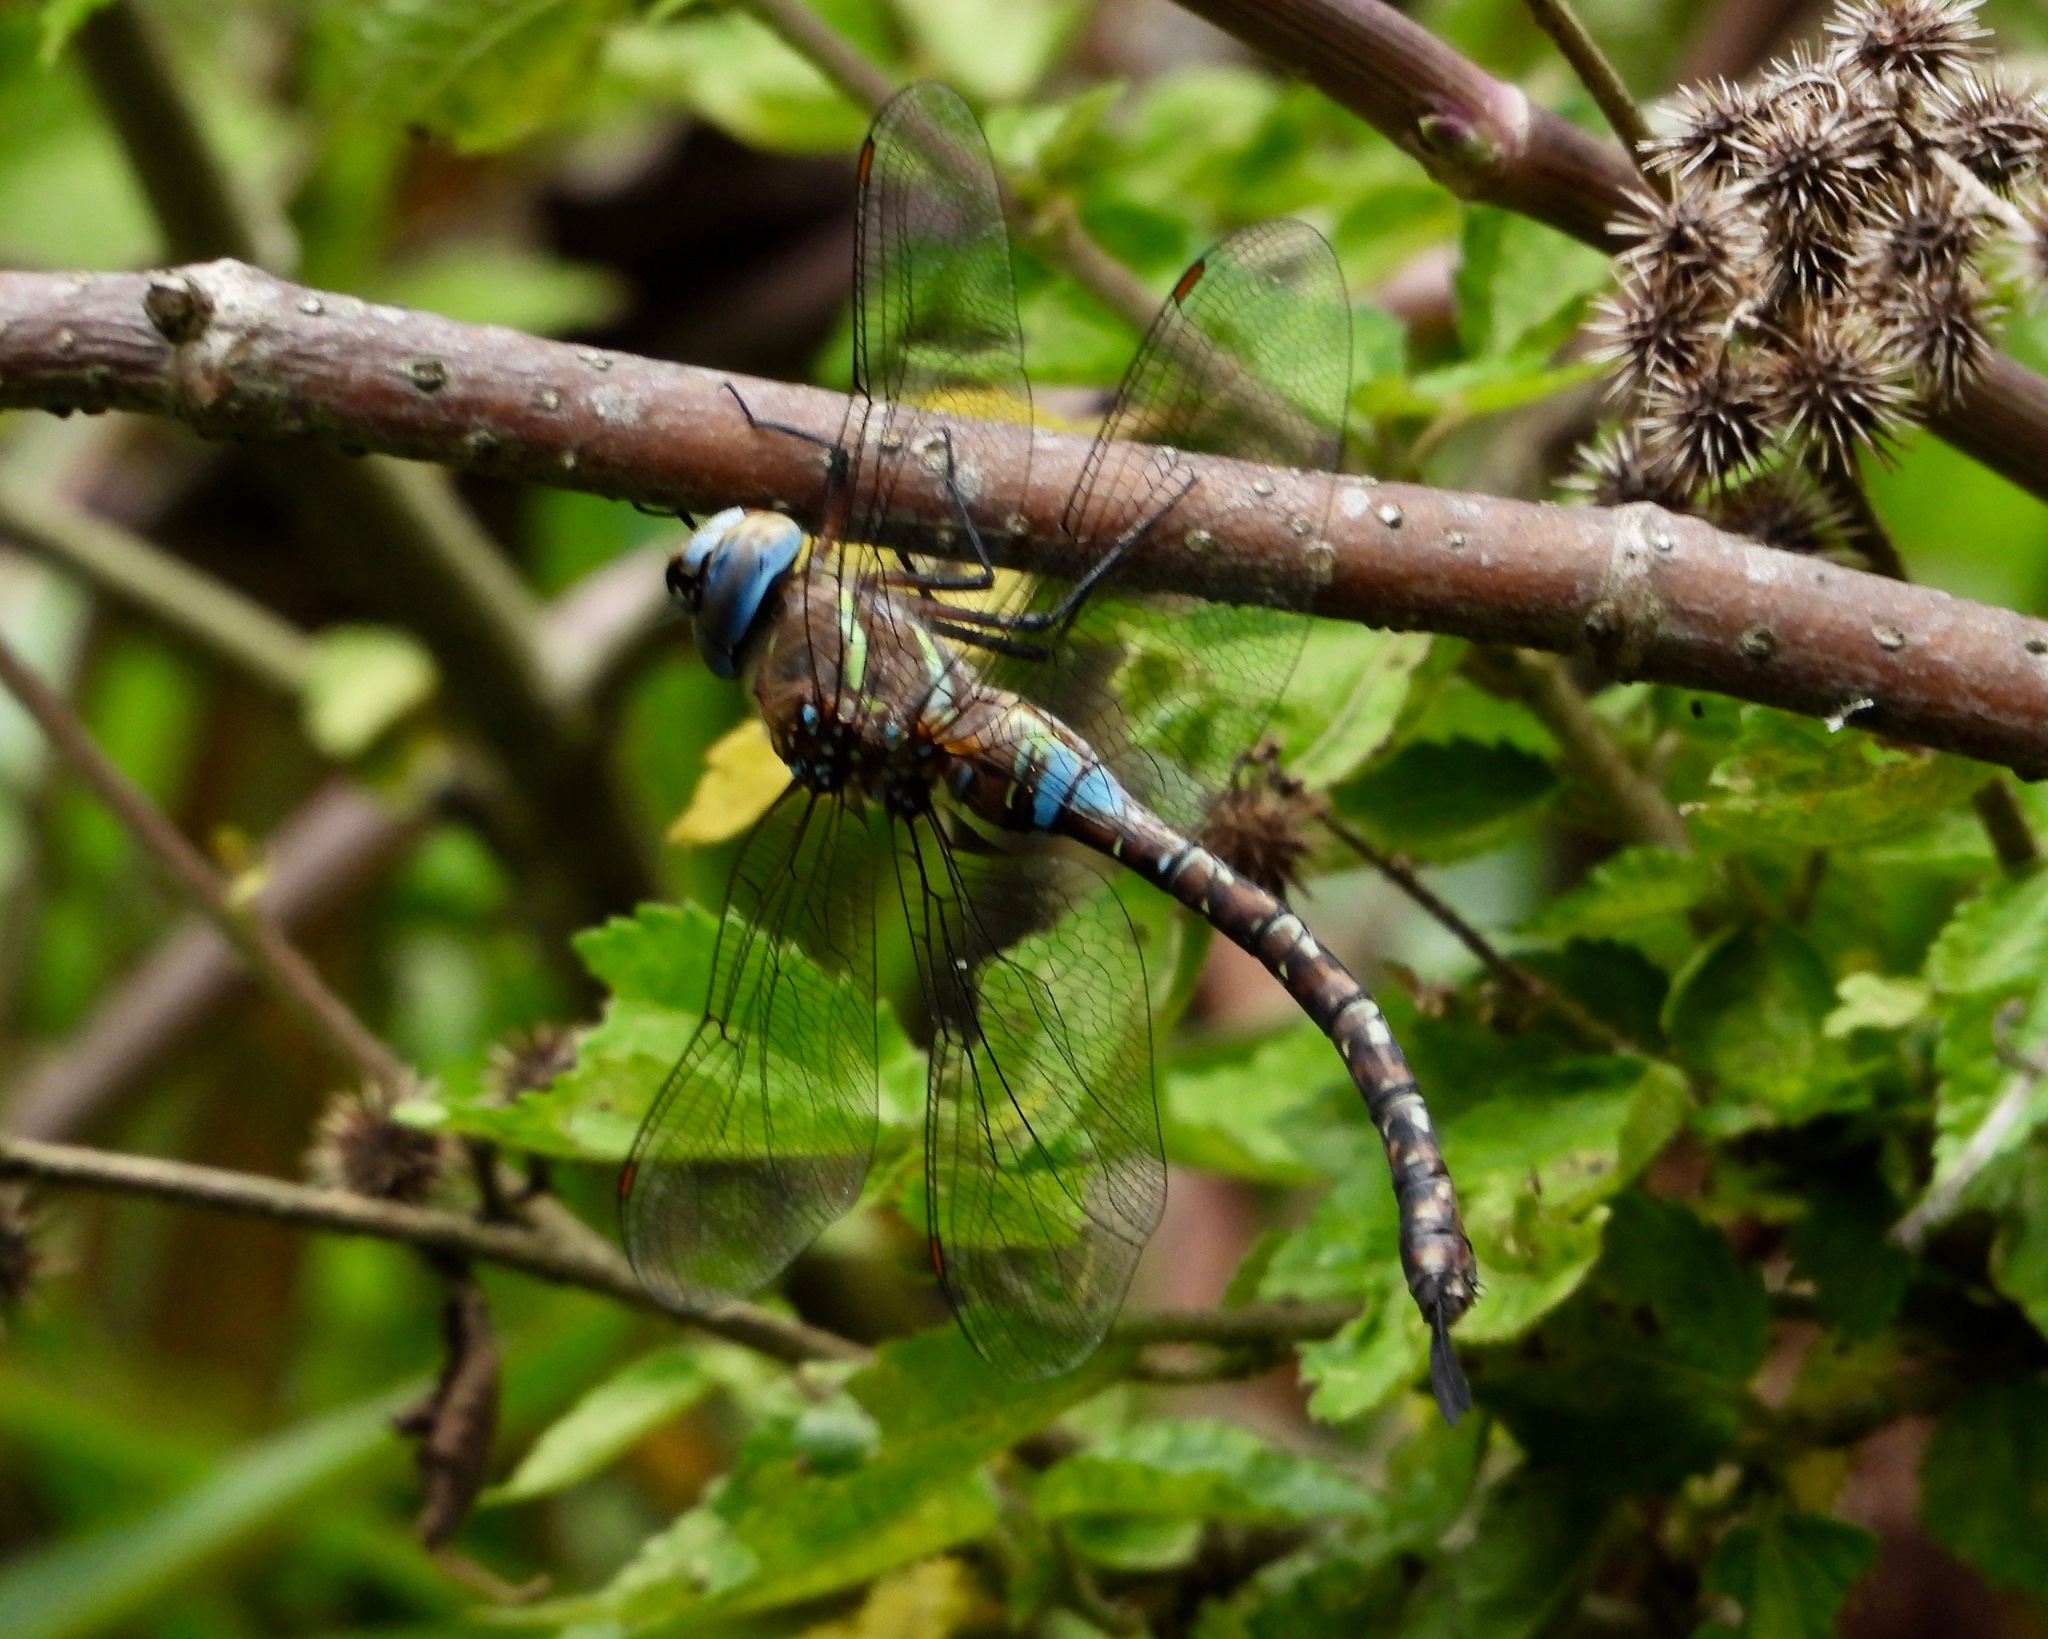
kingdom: Animalia
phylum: Arthropoda
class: Insecta
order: Odonata
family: Aeshnidae
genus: Rhionaeschna
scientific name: Rhionaeschna jalapensis
